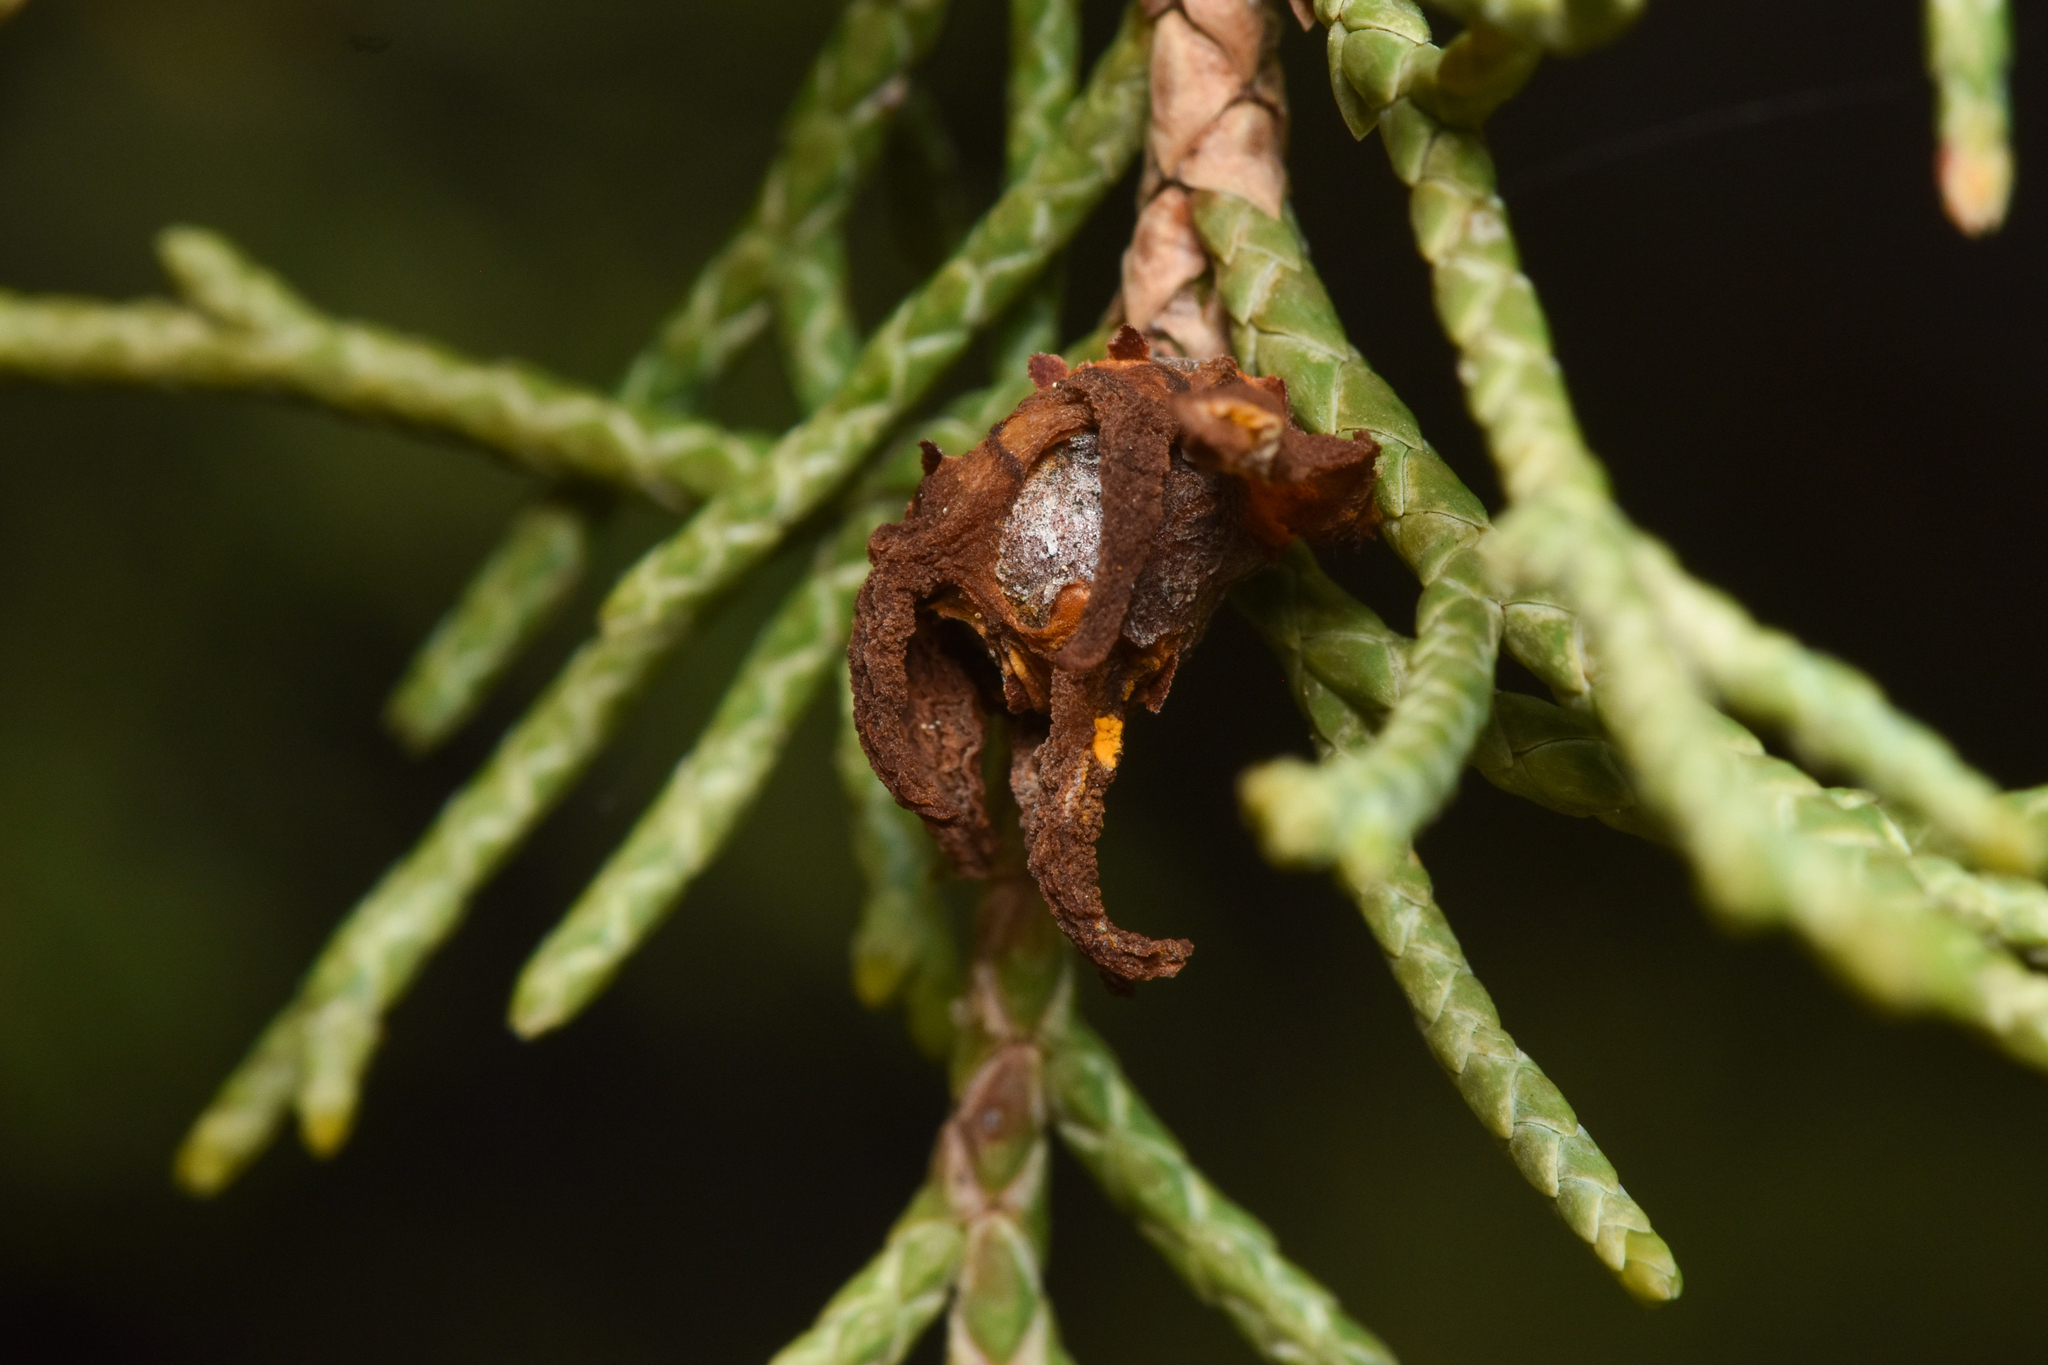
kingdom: Fungi
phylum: Basidiomycota
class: Pucciniomycetes
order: Pucciniales
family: Gymnosporangiaceae
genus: Gymnosporangium
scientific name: Gymnosporangium juniperi-virginianae
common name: Juniper-apple rust
